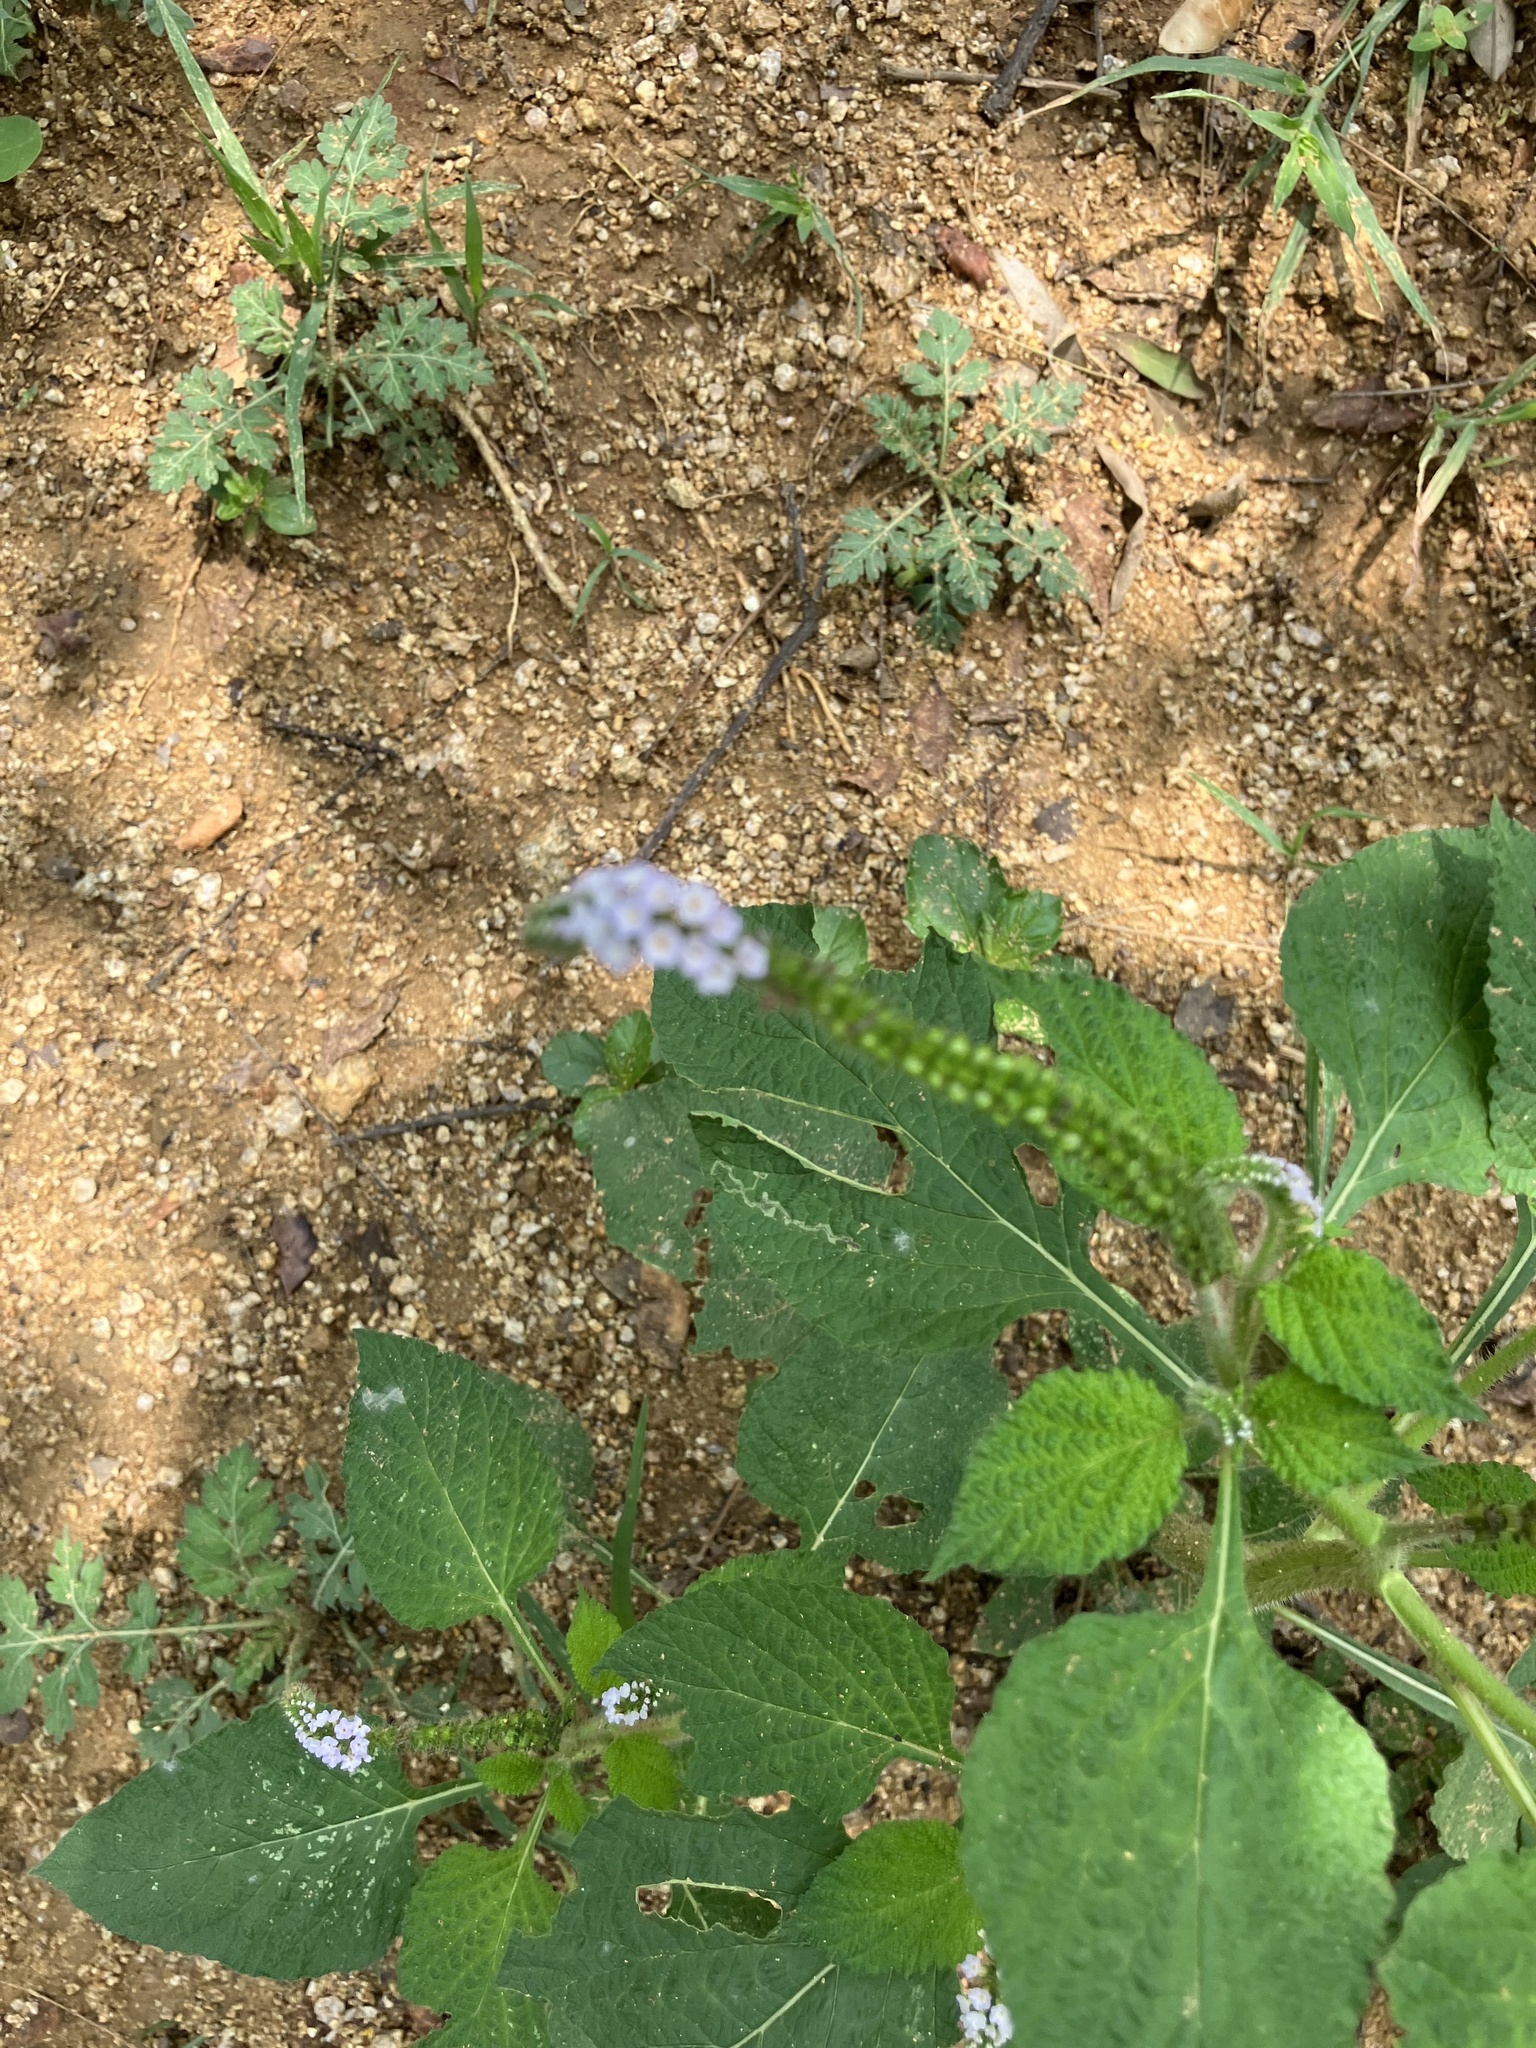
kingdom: Plantae
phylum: Tracheophyta
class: Magnoliopsida
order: Boraginales
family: Heliotropiaceae
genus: Heliotropium
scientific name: Heliotropium indicum
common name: Indian heliotrope
